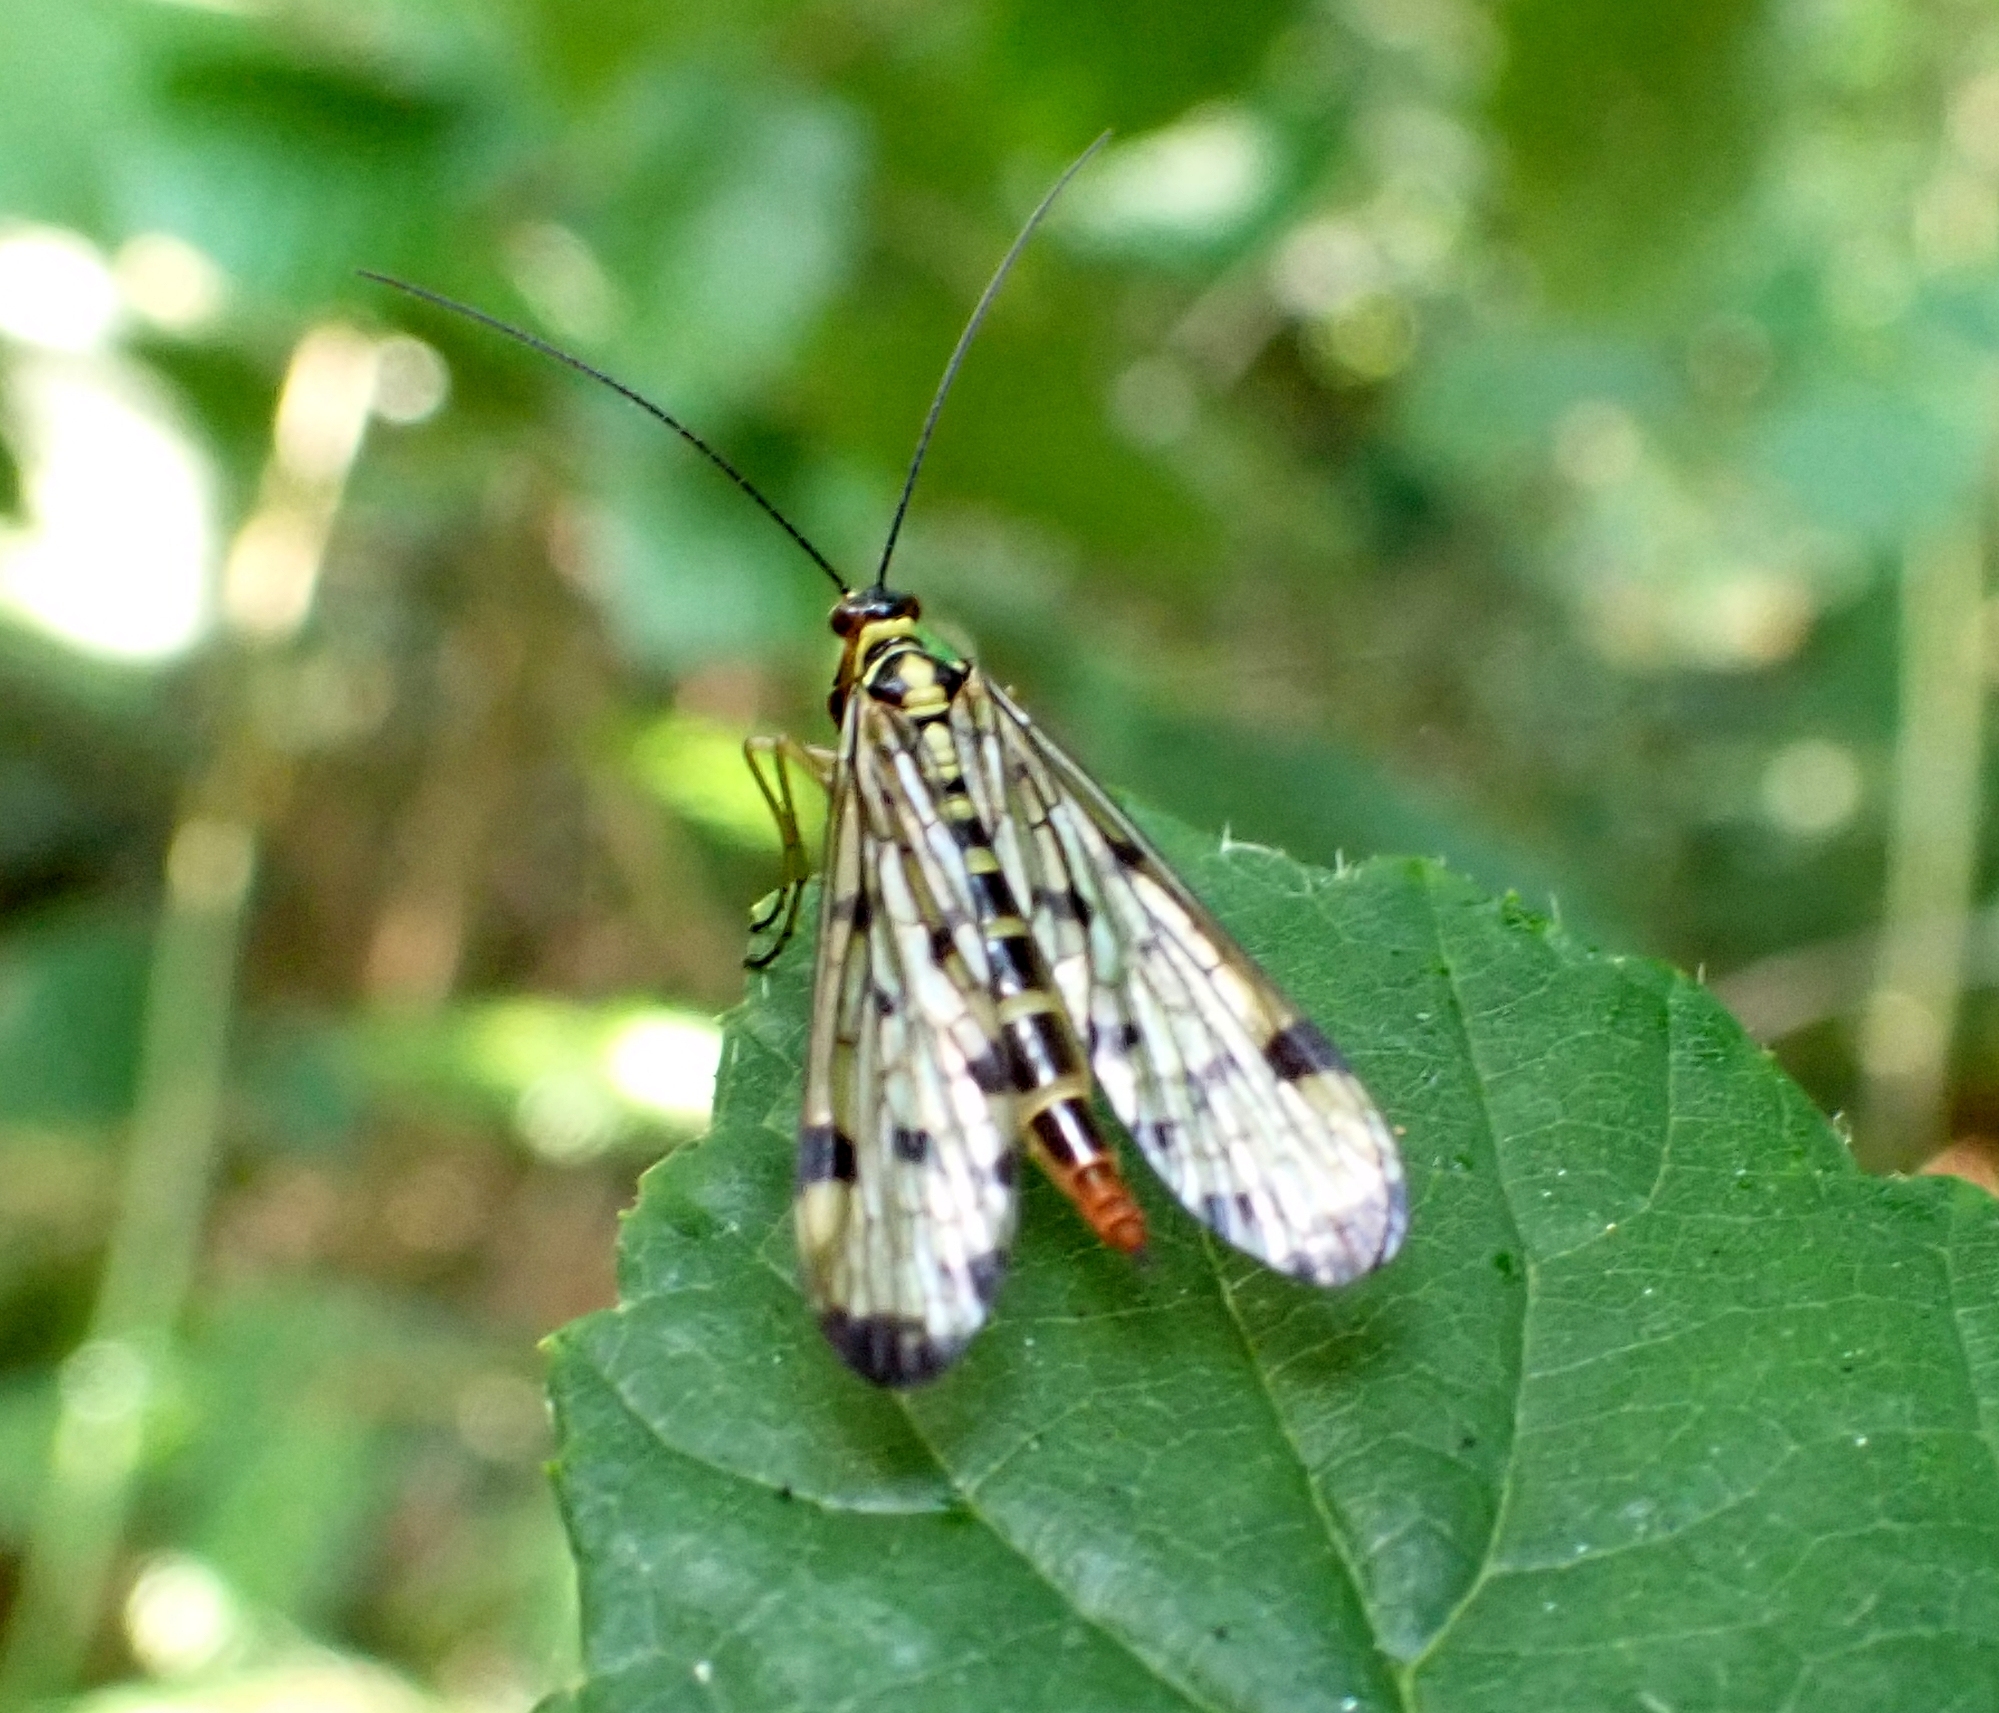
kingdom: Animalia
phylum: Arthropoda
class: Insecta
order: Mecoptera
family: Panorpidae
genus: Panorpa
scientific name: Panorpa germanica
